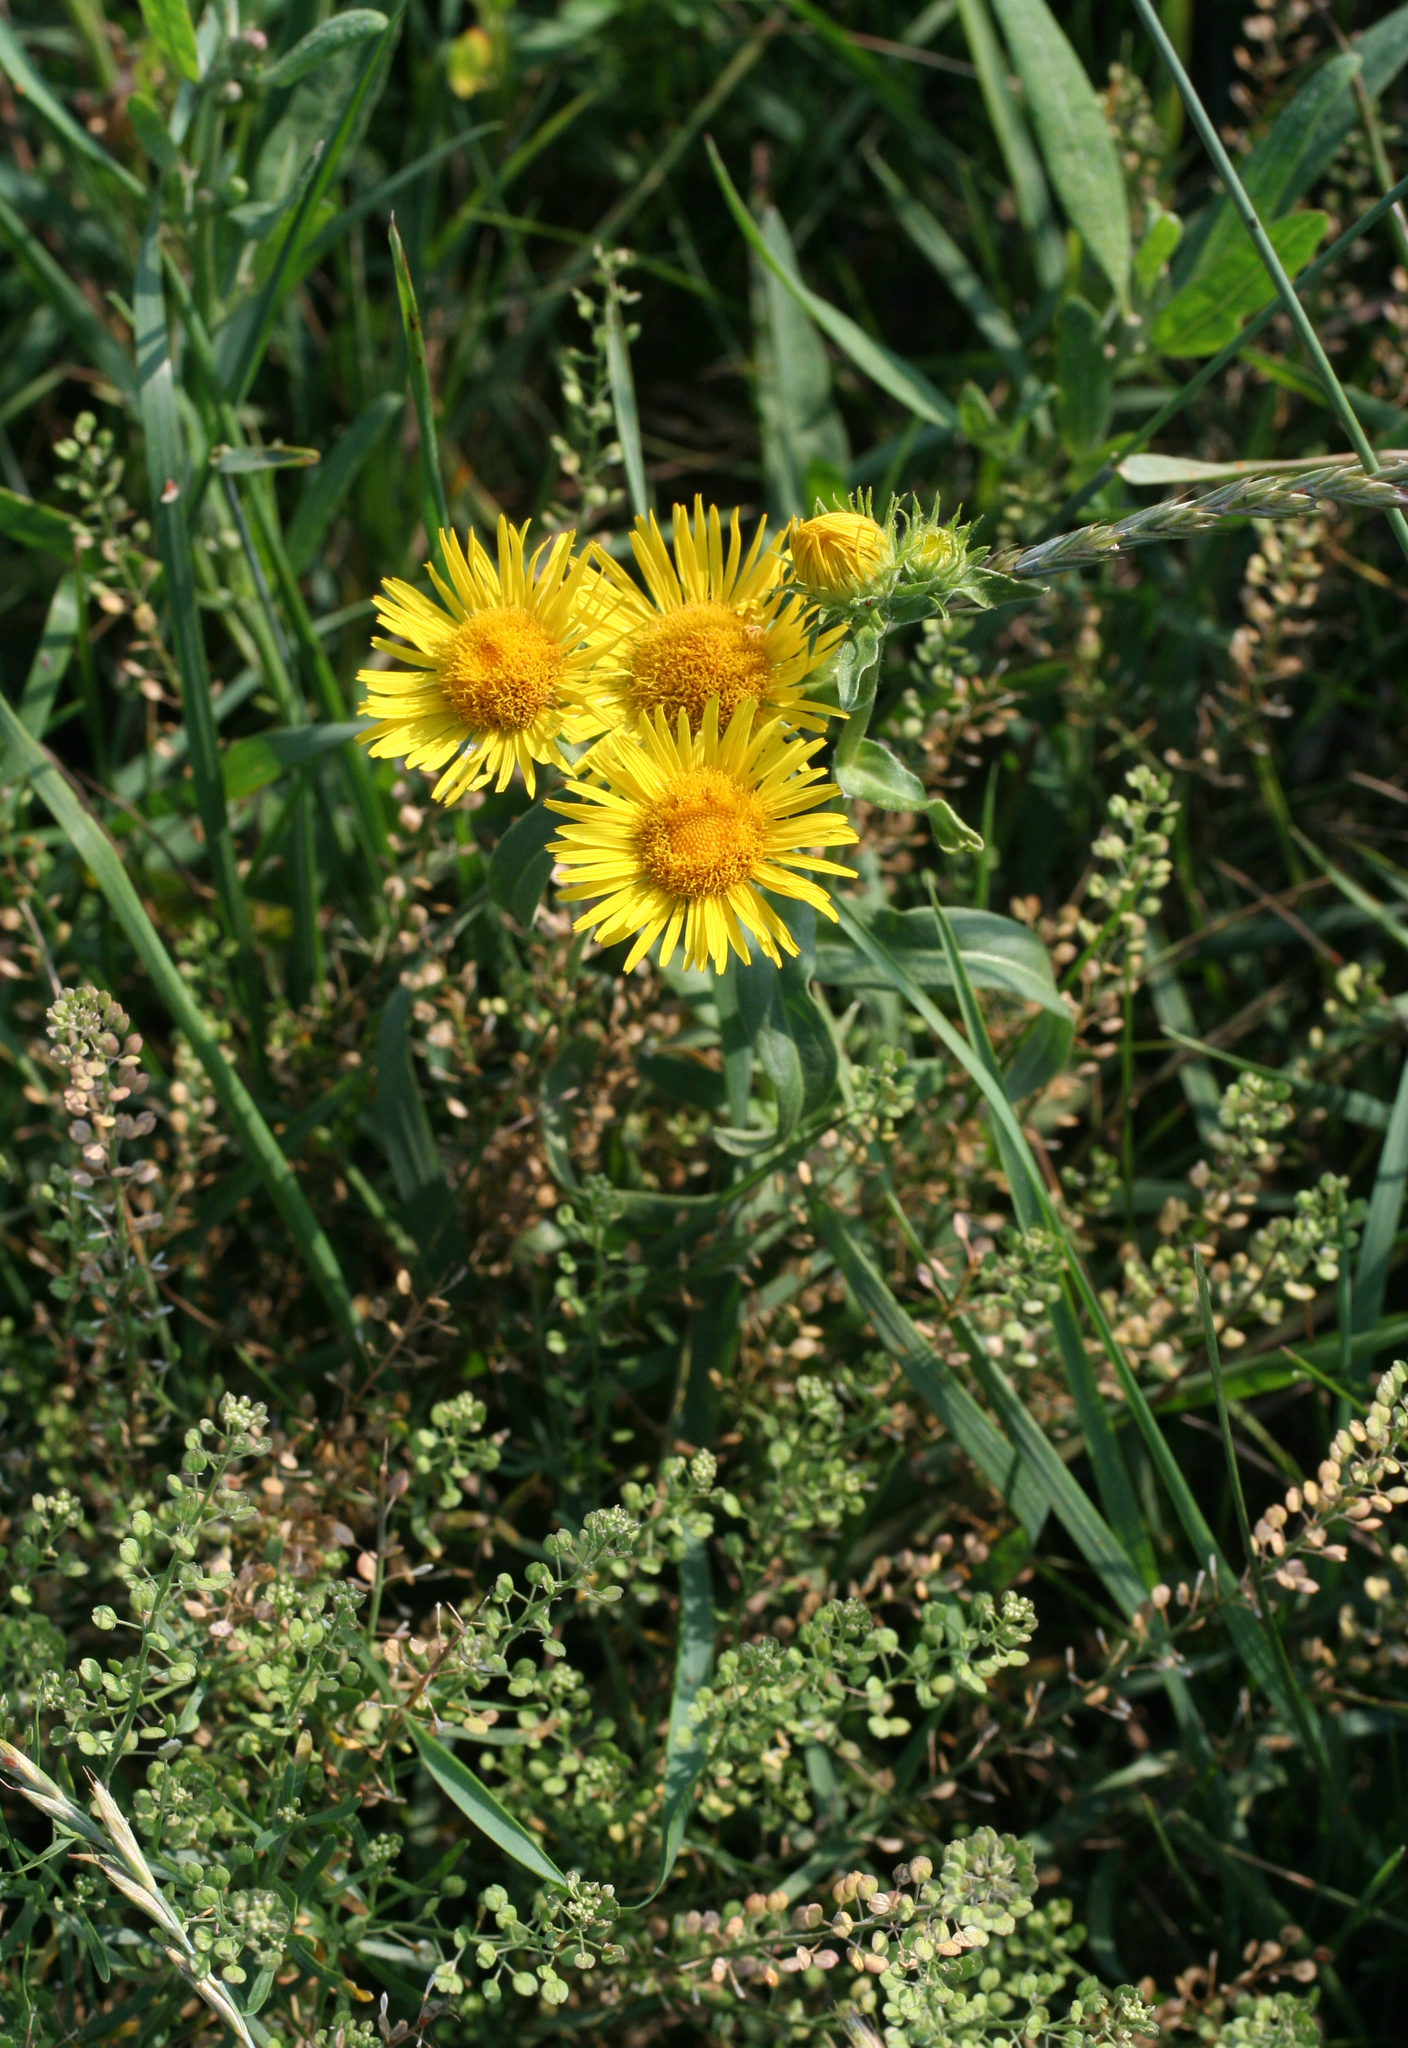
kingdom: Plantae
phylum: Tracheophyta
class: Magnoliopsida
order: Asterales
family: Asteraceae
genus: Pentanema
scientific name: Pentanema britannicum
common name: British elecampane
